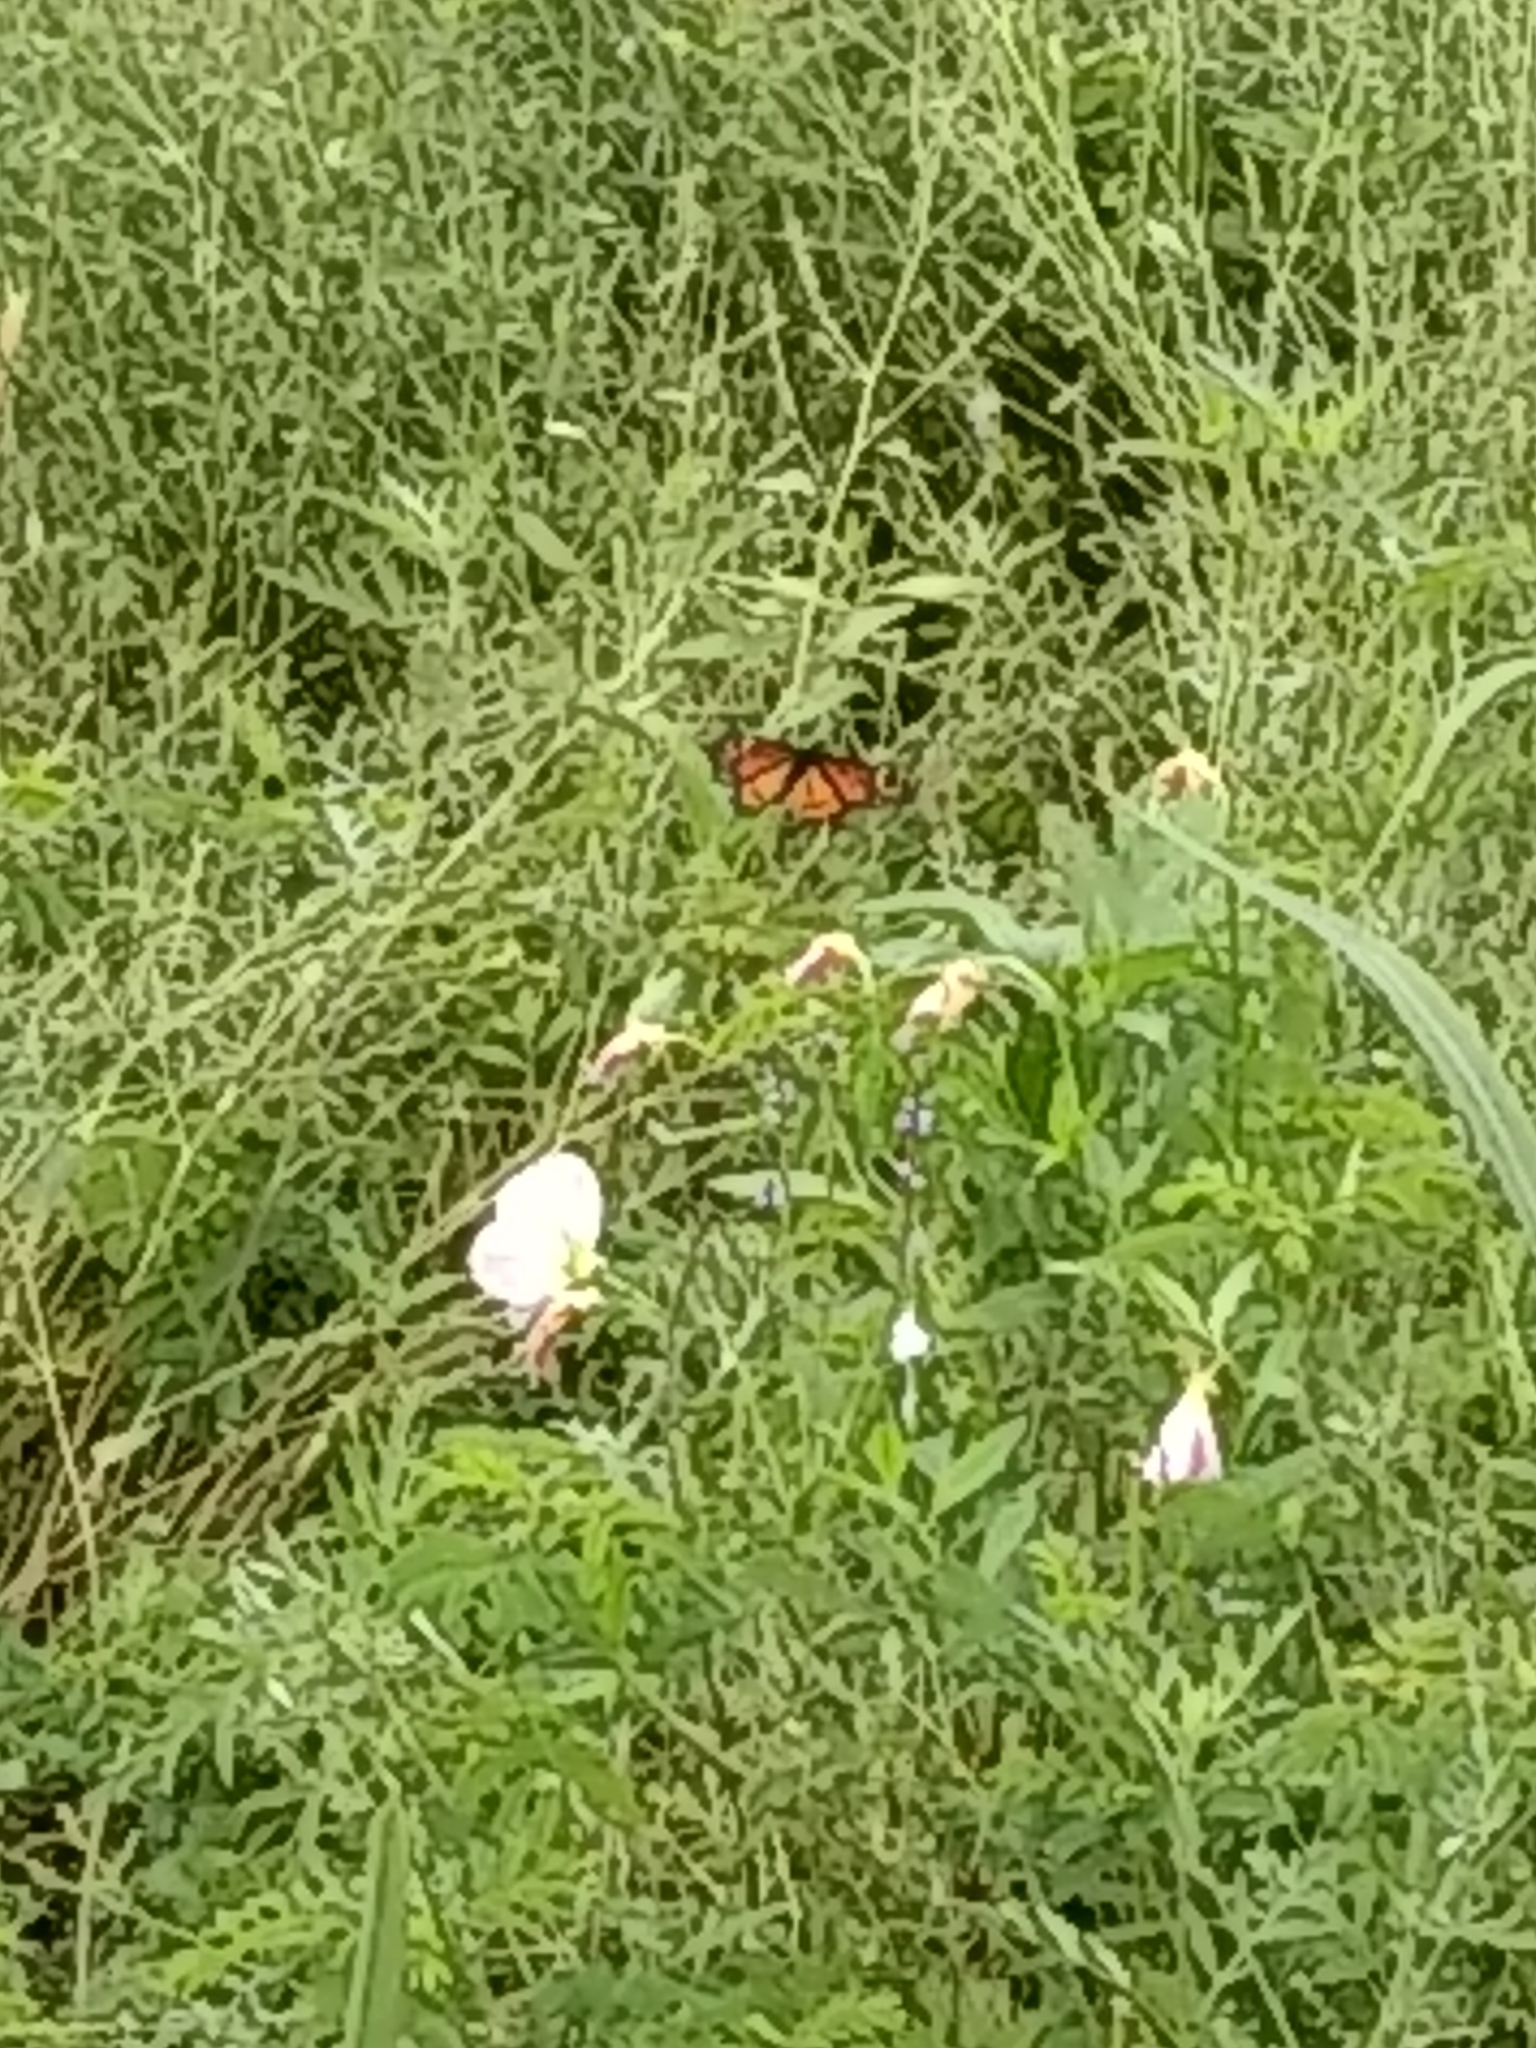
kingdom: Animalia
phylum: Arthropoda
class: Insecta
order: Lepidoptera
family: Nymphalidae
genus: Limenitis
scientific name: Limenitis archippus
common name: Viceroy
